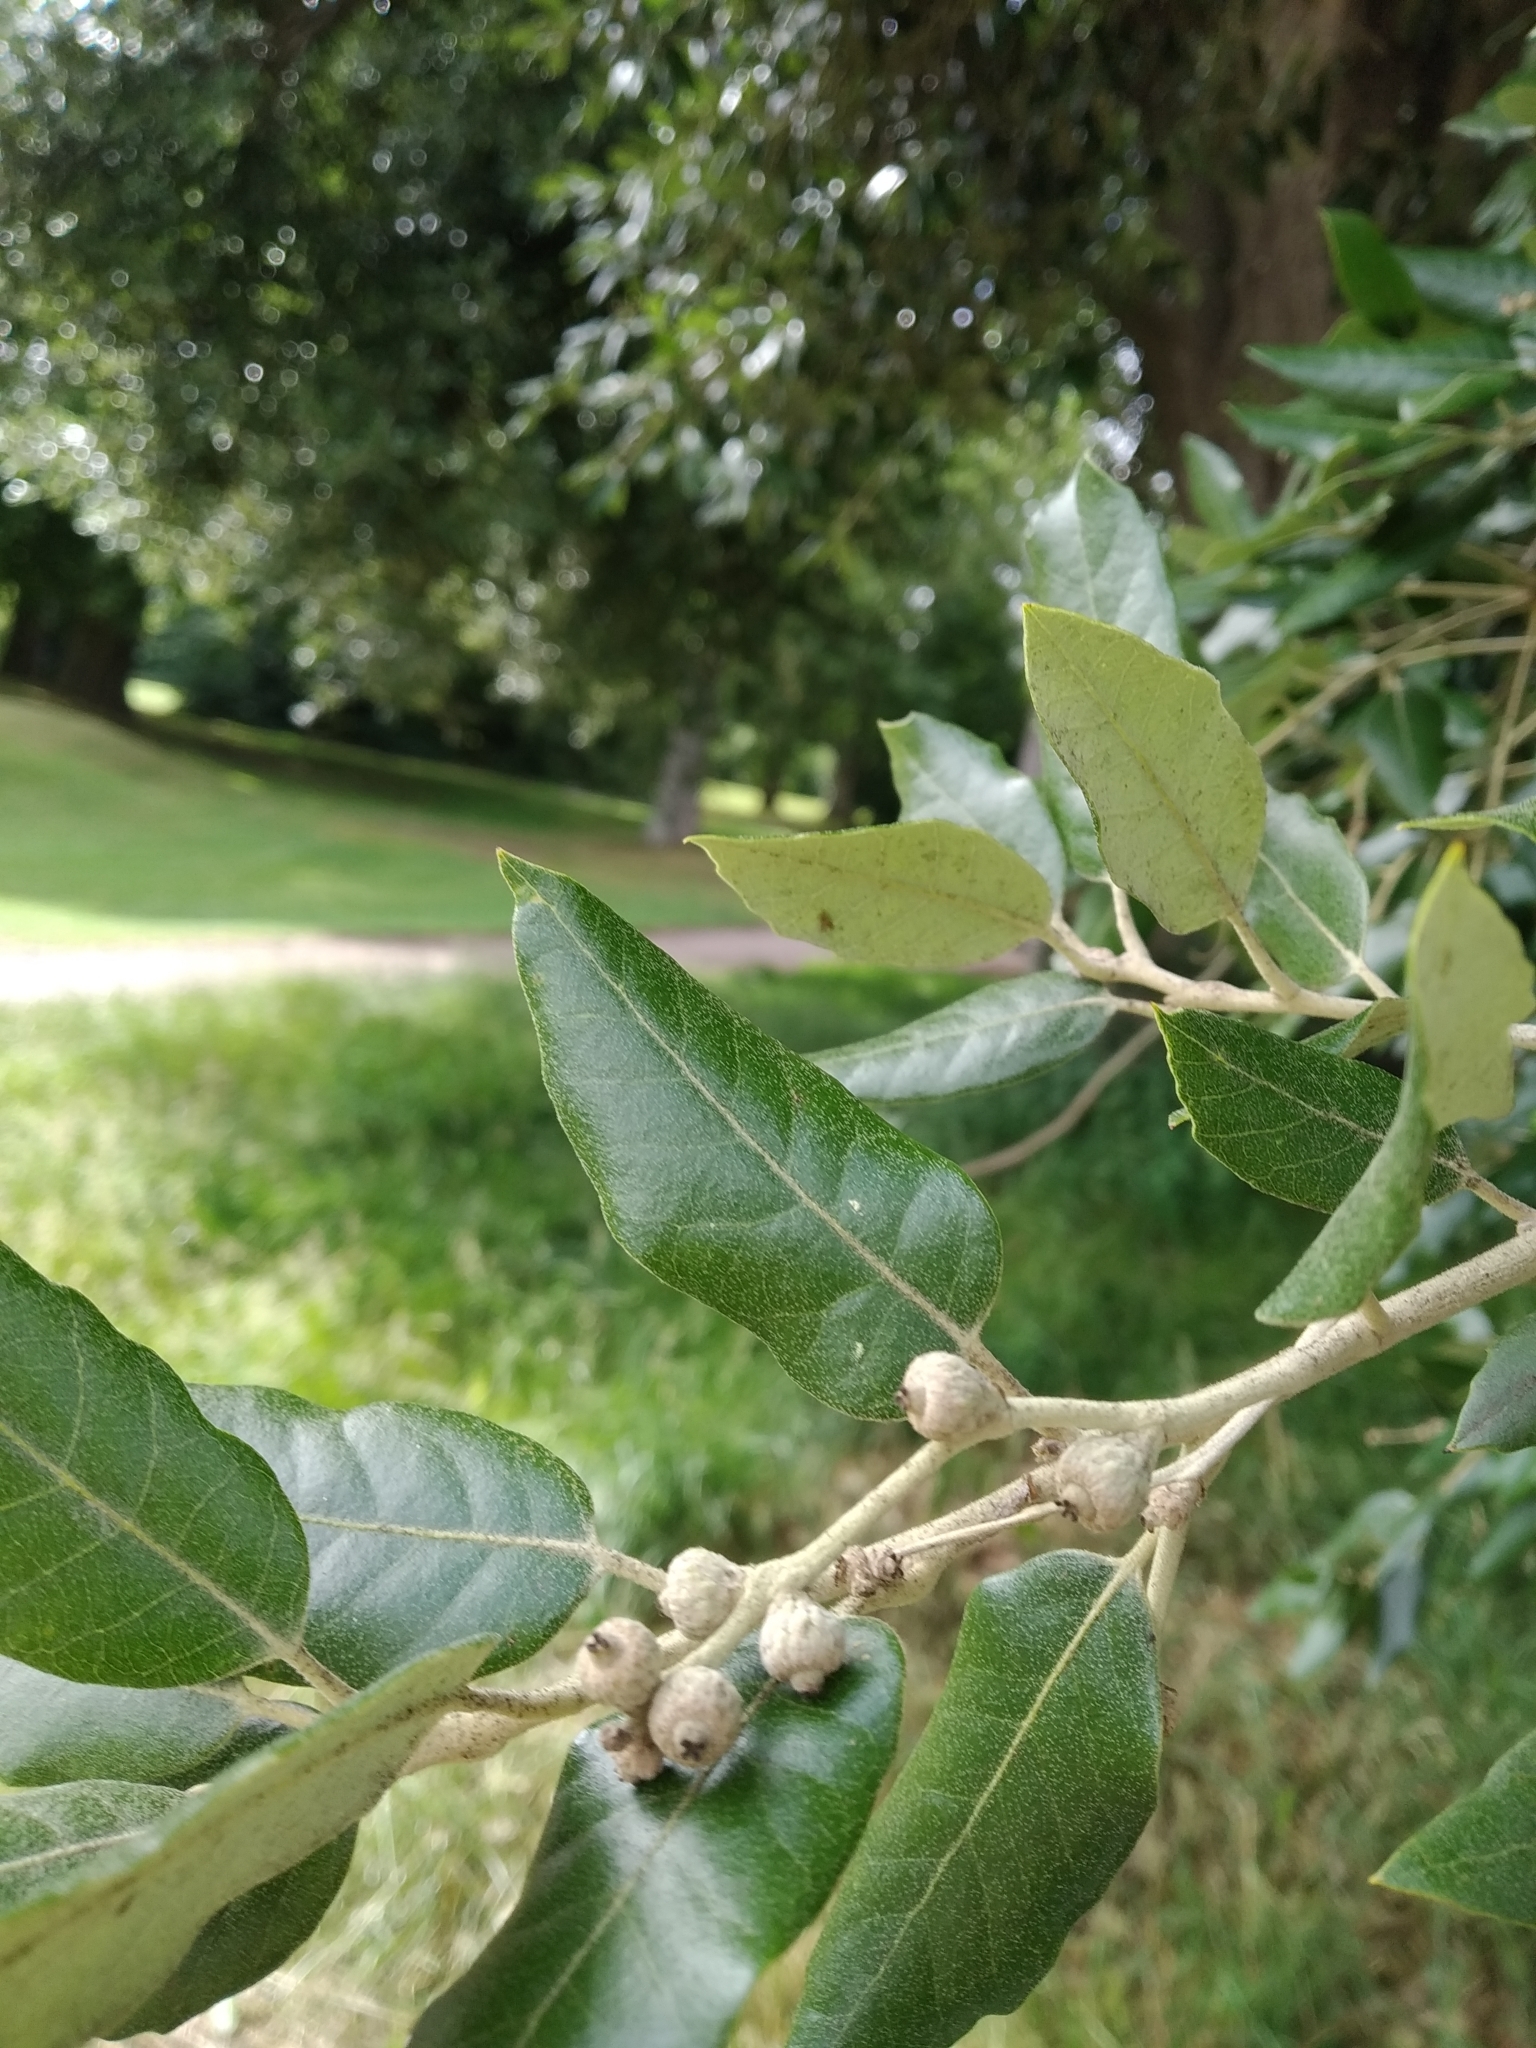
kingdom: Plantae
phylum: Tracheophyta
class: Magnoliopsida
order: Fagales
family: Fagaceae
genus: Quercus
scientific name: Quercus ilex
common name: Evergreen oak
